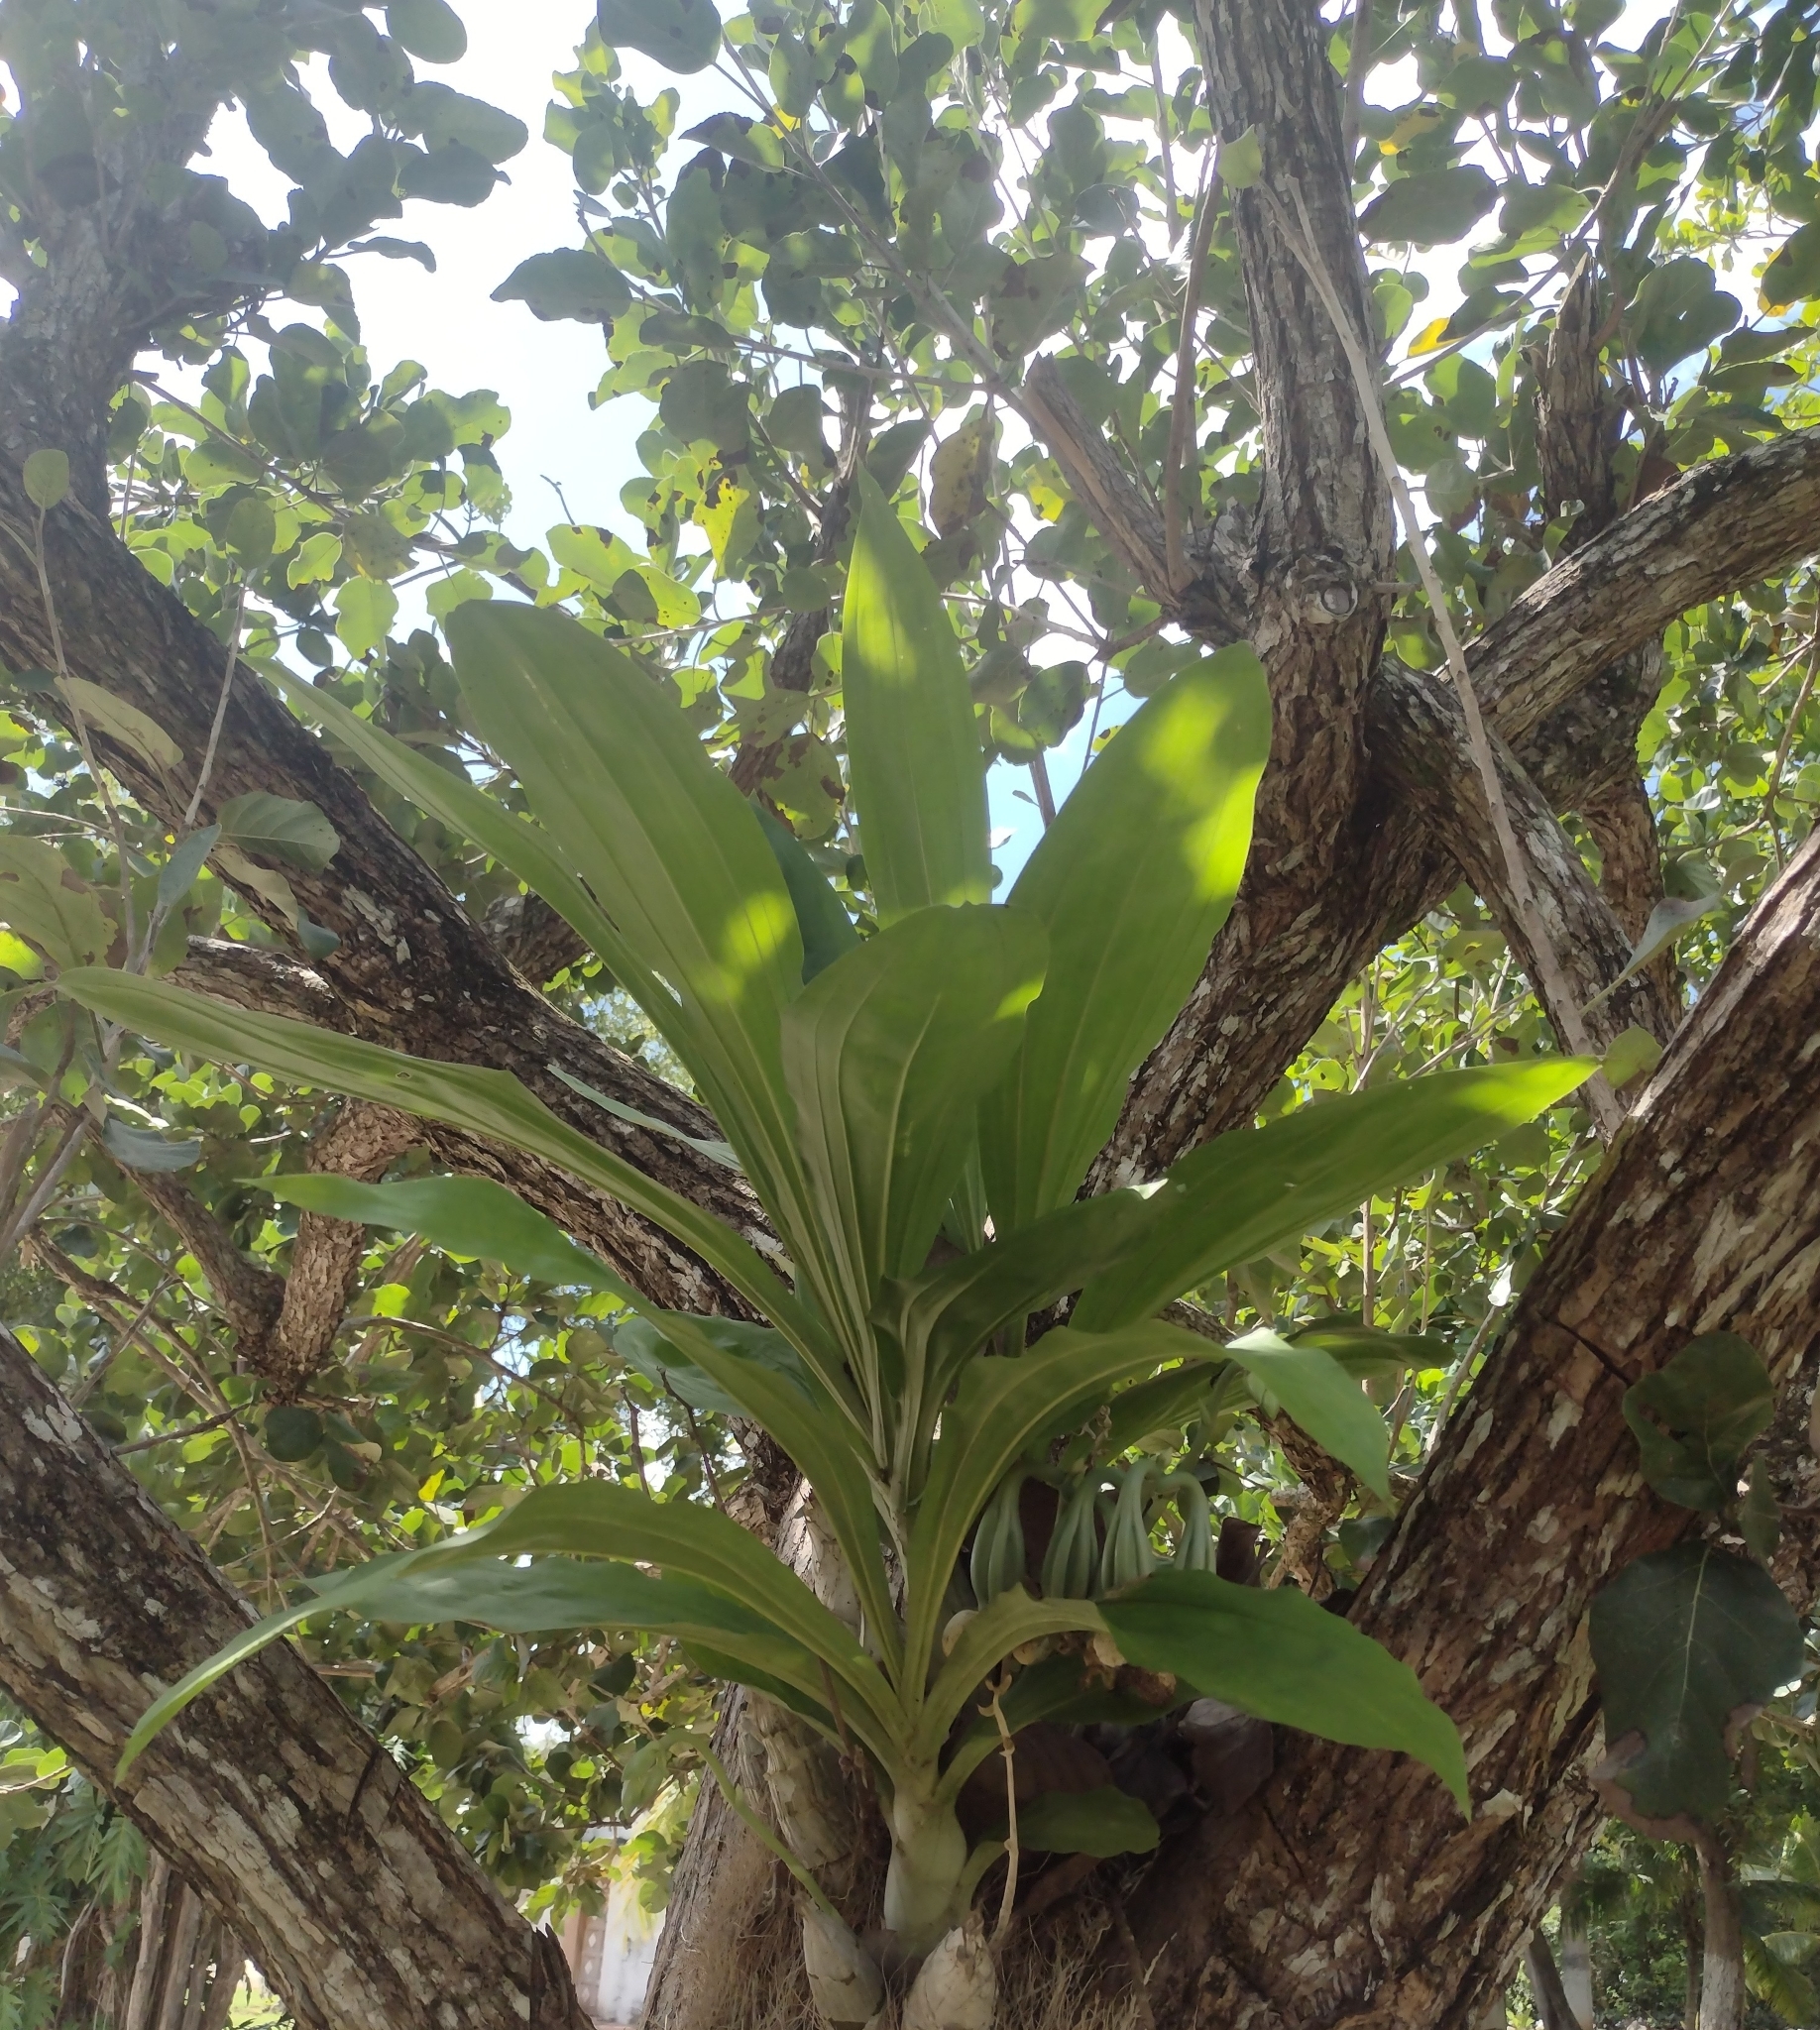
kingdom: Plantae
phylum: Tracheophyta
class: Liliopsida
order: Asparagales
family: Orchidaceae
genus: Catasetum
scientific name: Catasetum integerrimum
